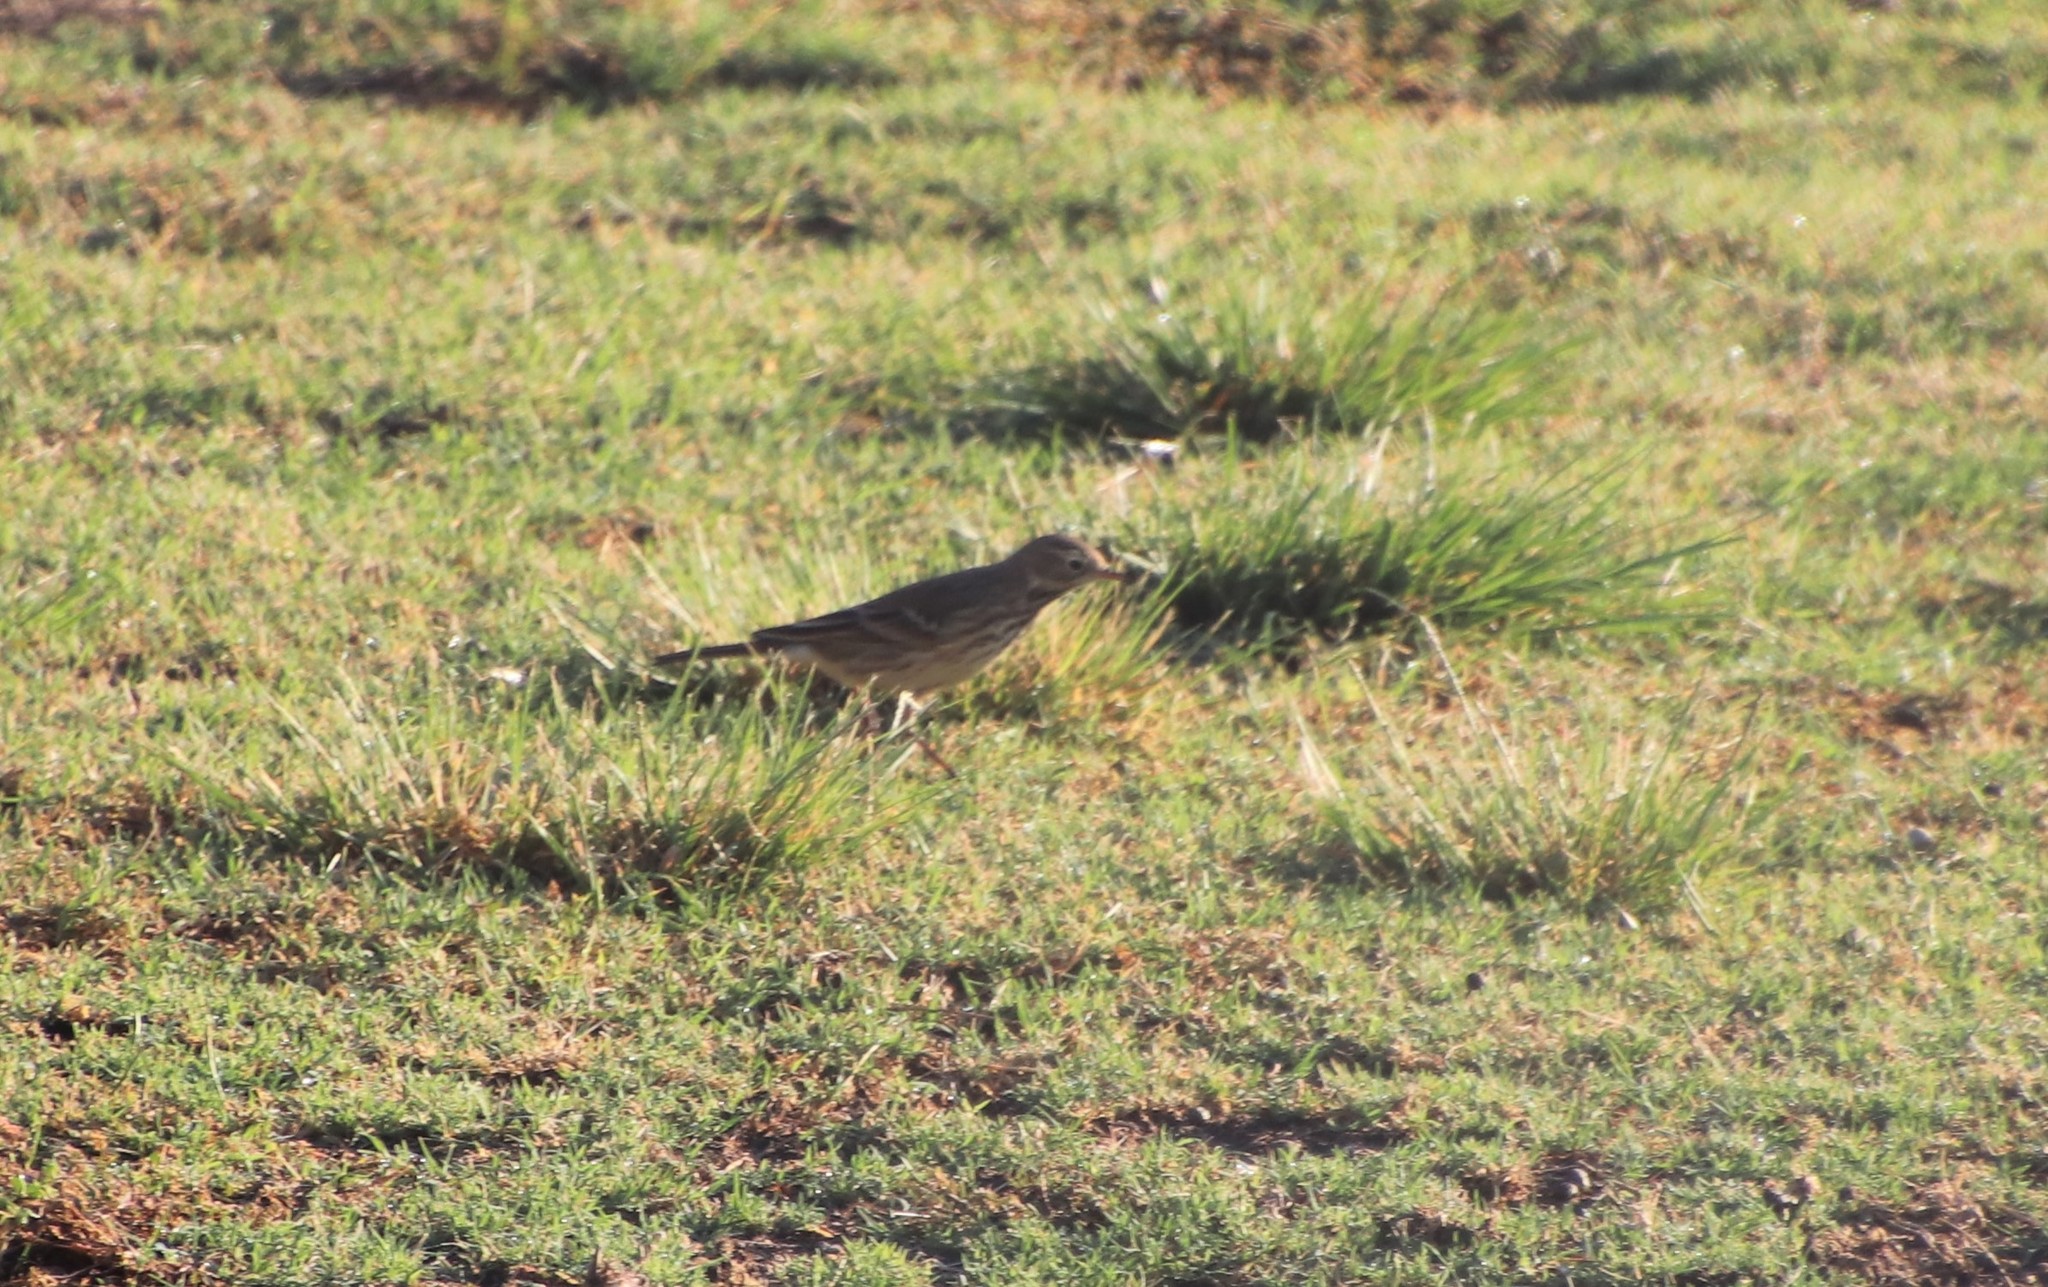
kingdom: Animalia
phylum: Chordata
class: Aves
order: Passeriformes
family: Motacillidae
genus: Anthus
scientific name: Anthus rubescens
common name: Buff-bellied pipit
